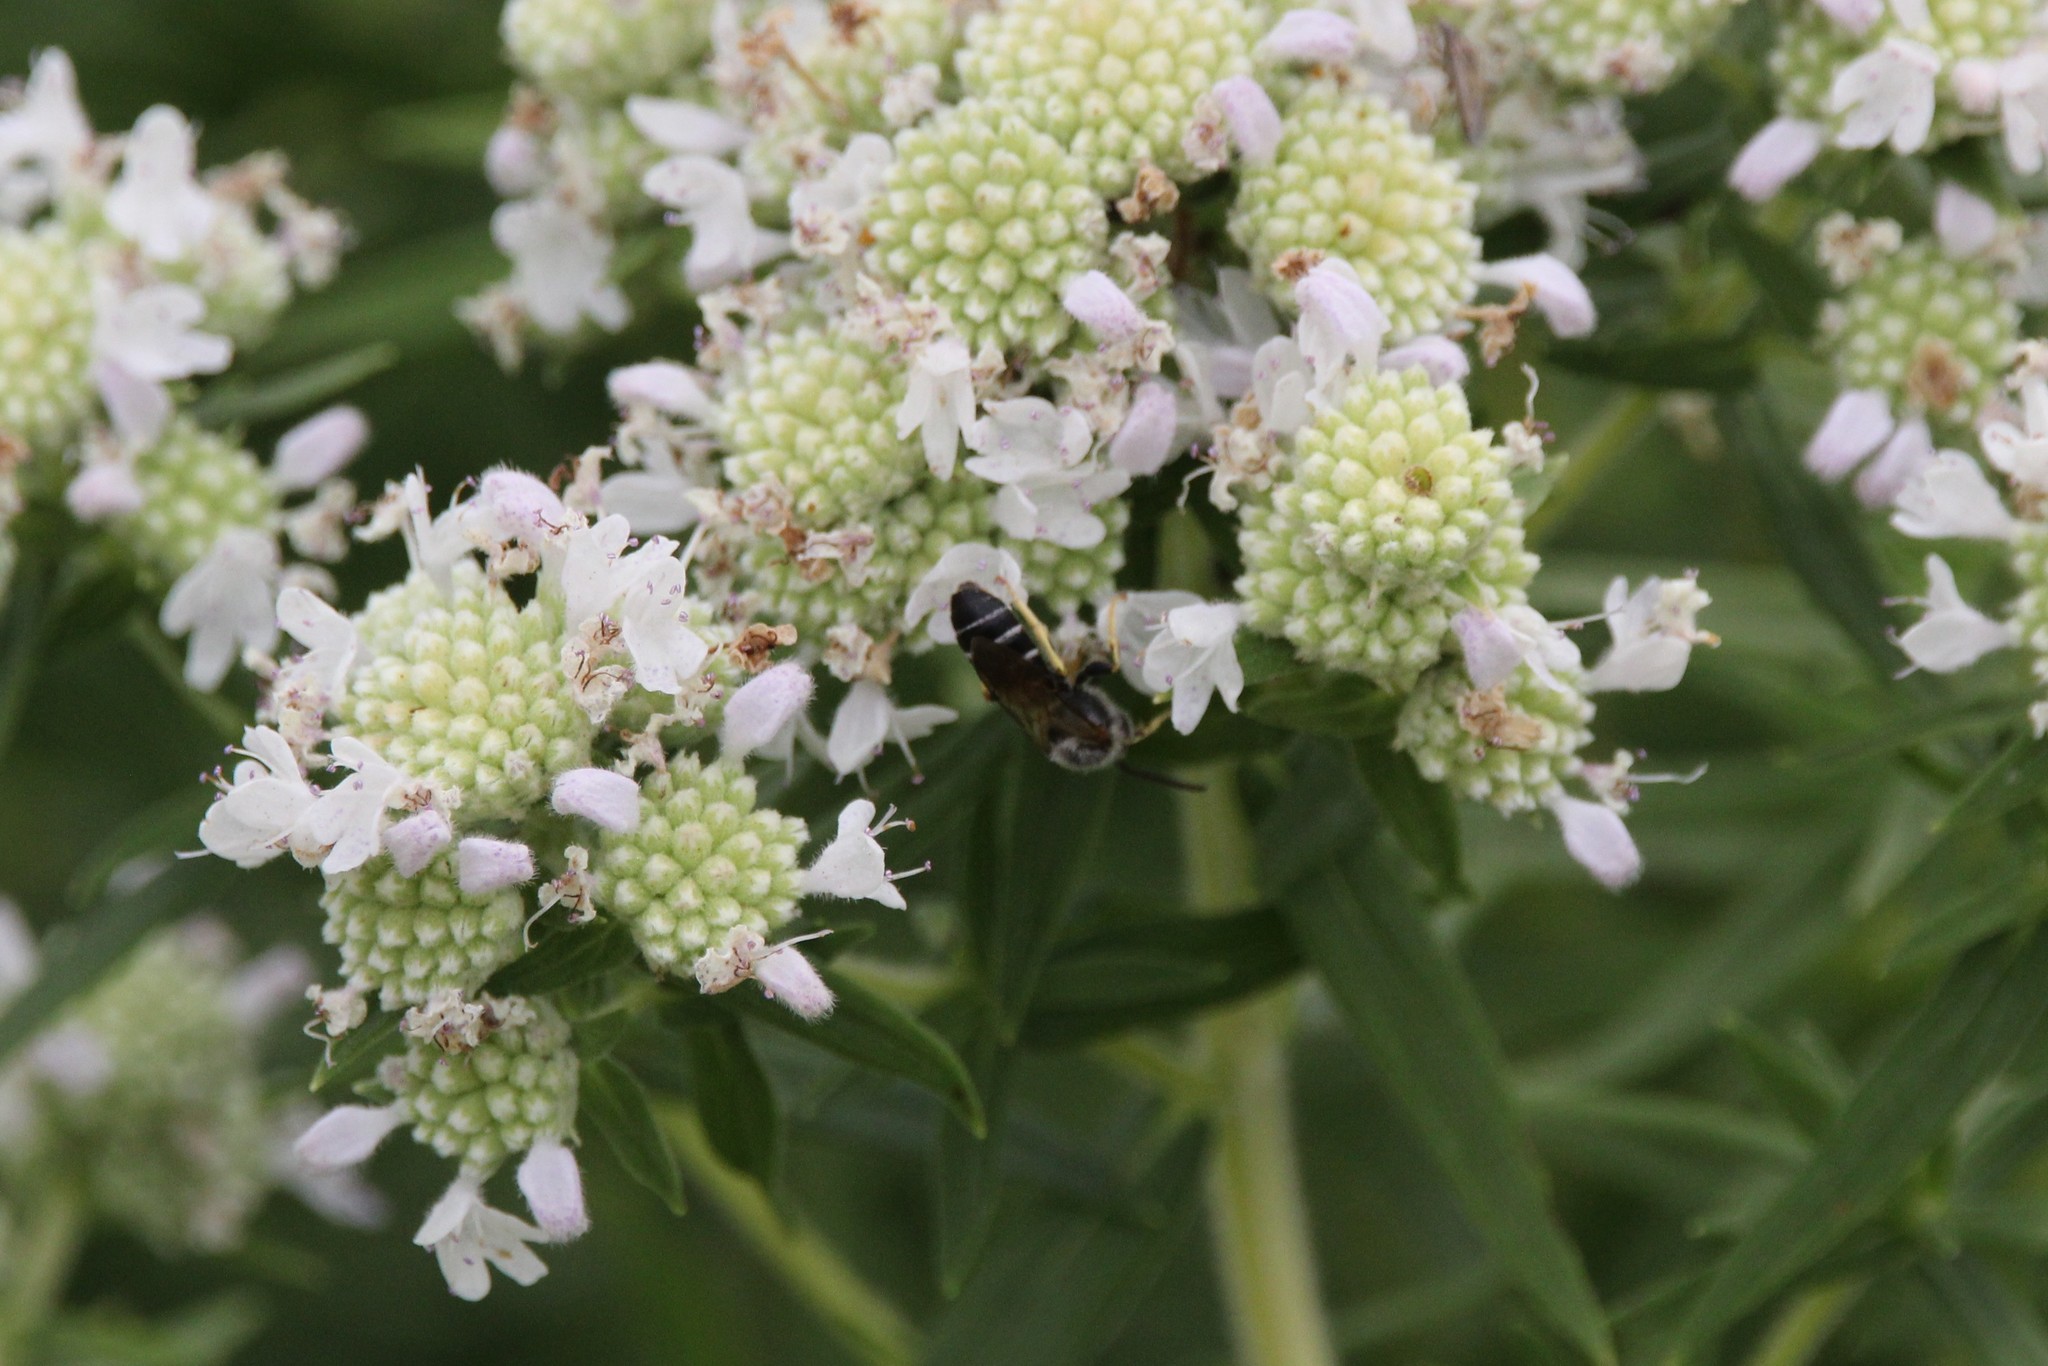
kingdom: Animalia
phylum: Arthropoda
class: Insecta
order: Hymenoptera
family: Halictidae
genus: Halictus
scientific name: Halictus rubicundus
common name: Orange-legged furrow bee
